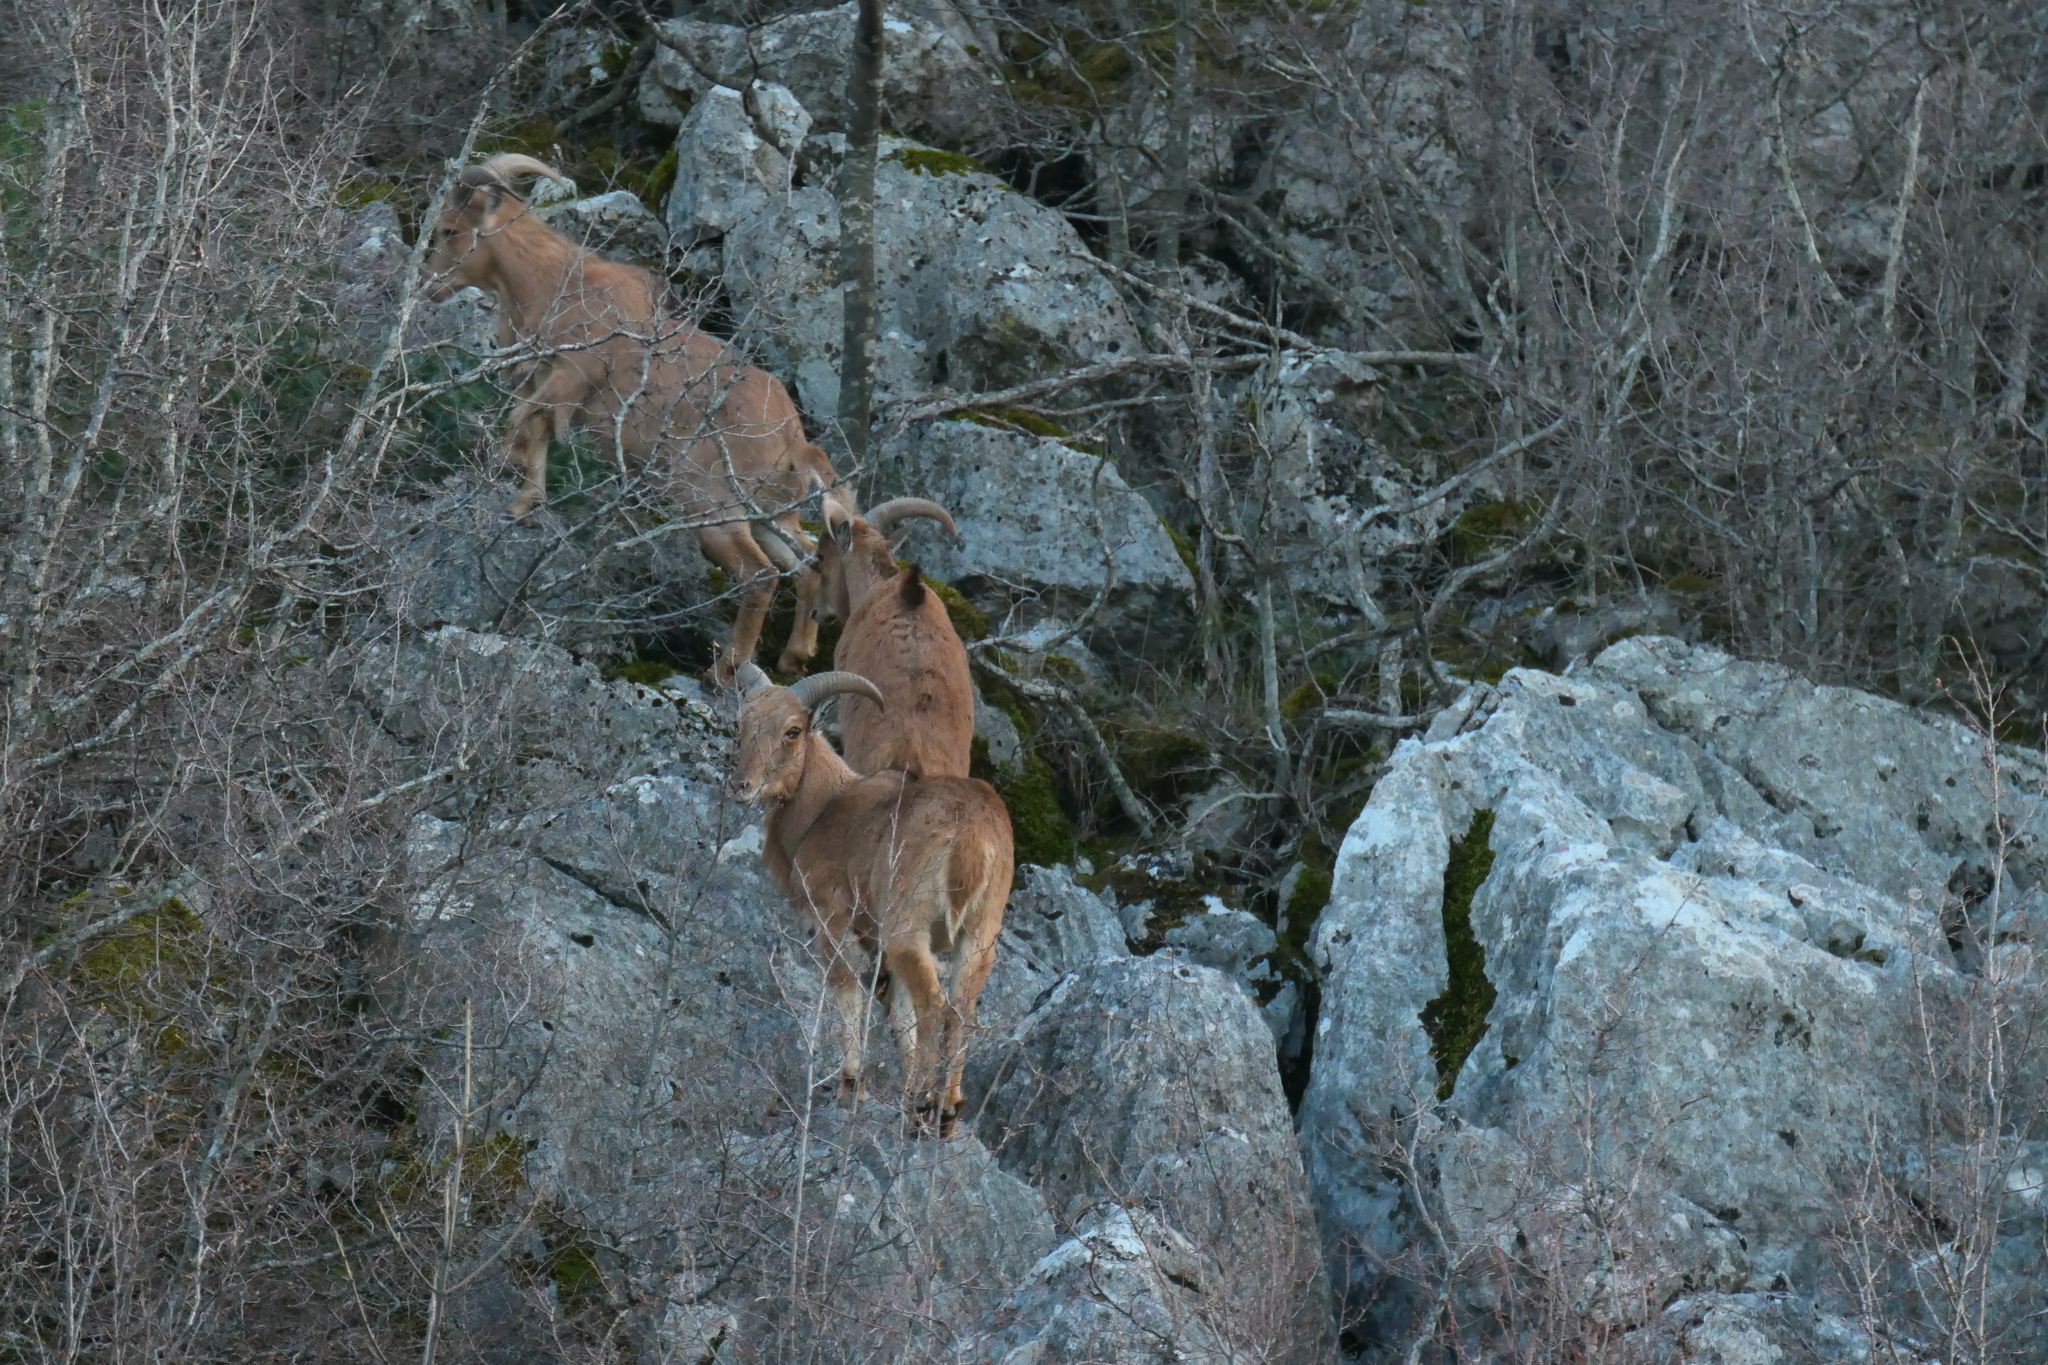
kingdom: Animalia
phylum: Chordata
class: Mammalia
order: Artiodactyla
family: Bovidae
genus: Ammotragus
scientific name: Ammotragus lervia
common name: Barbary sheep
